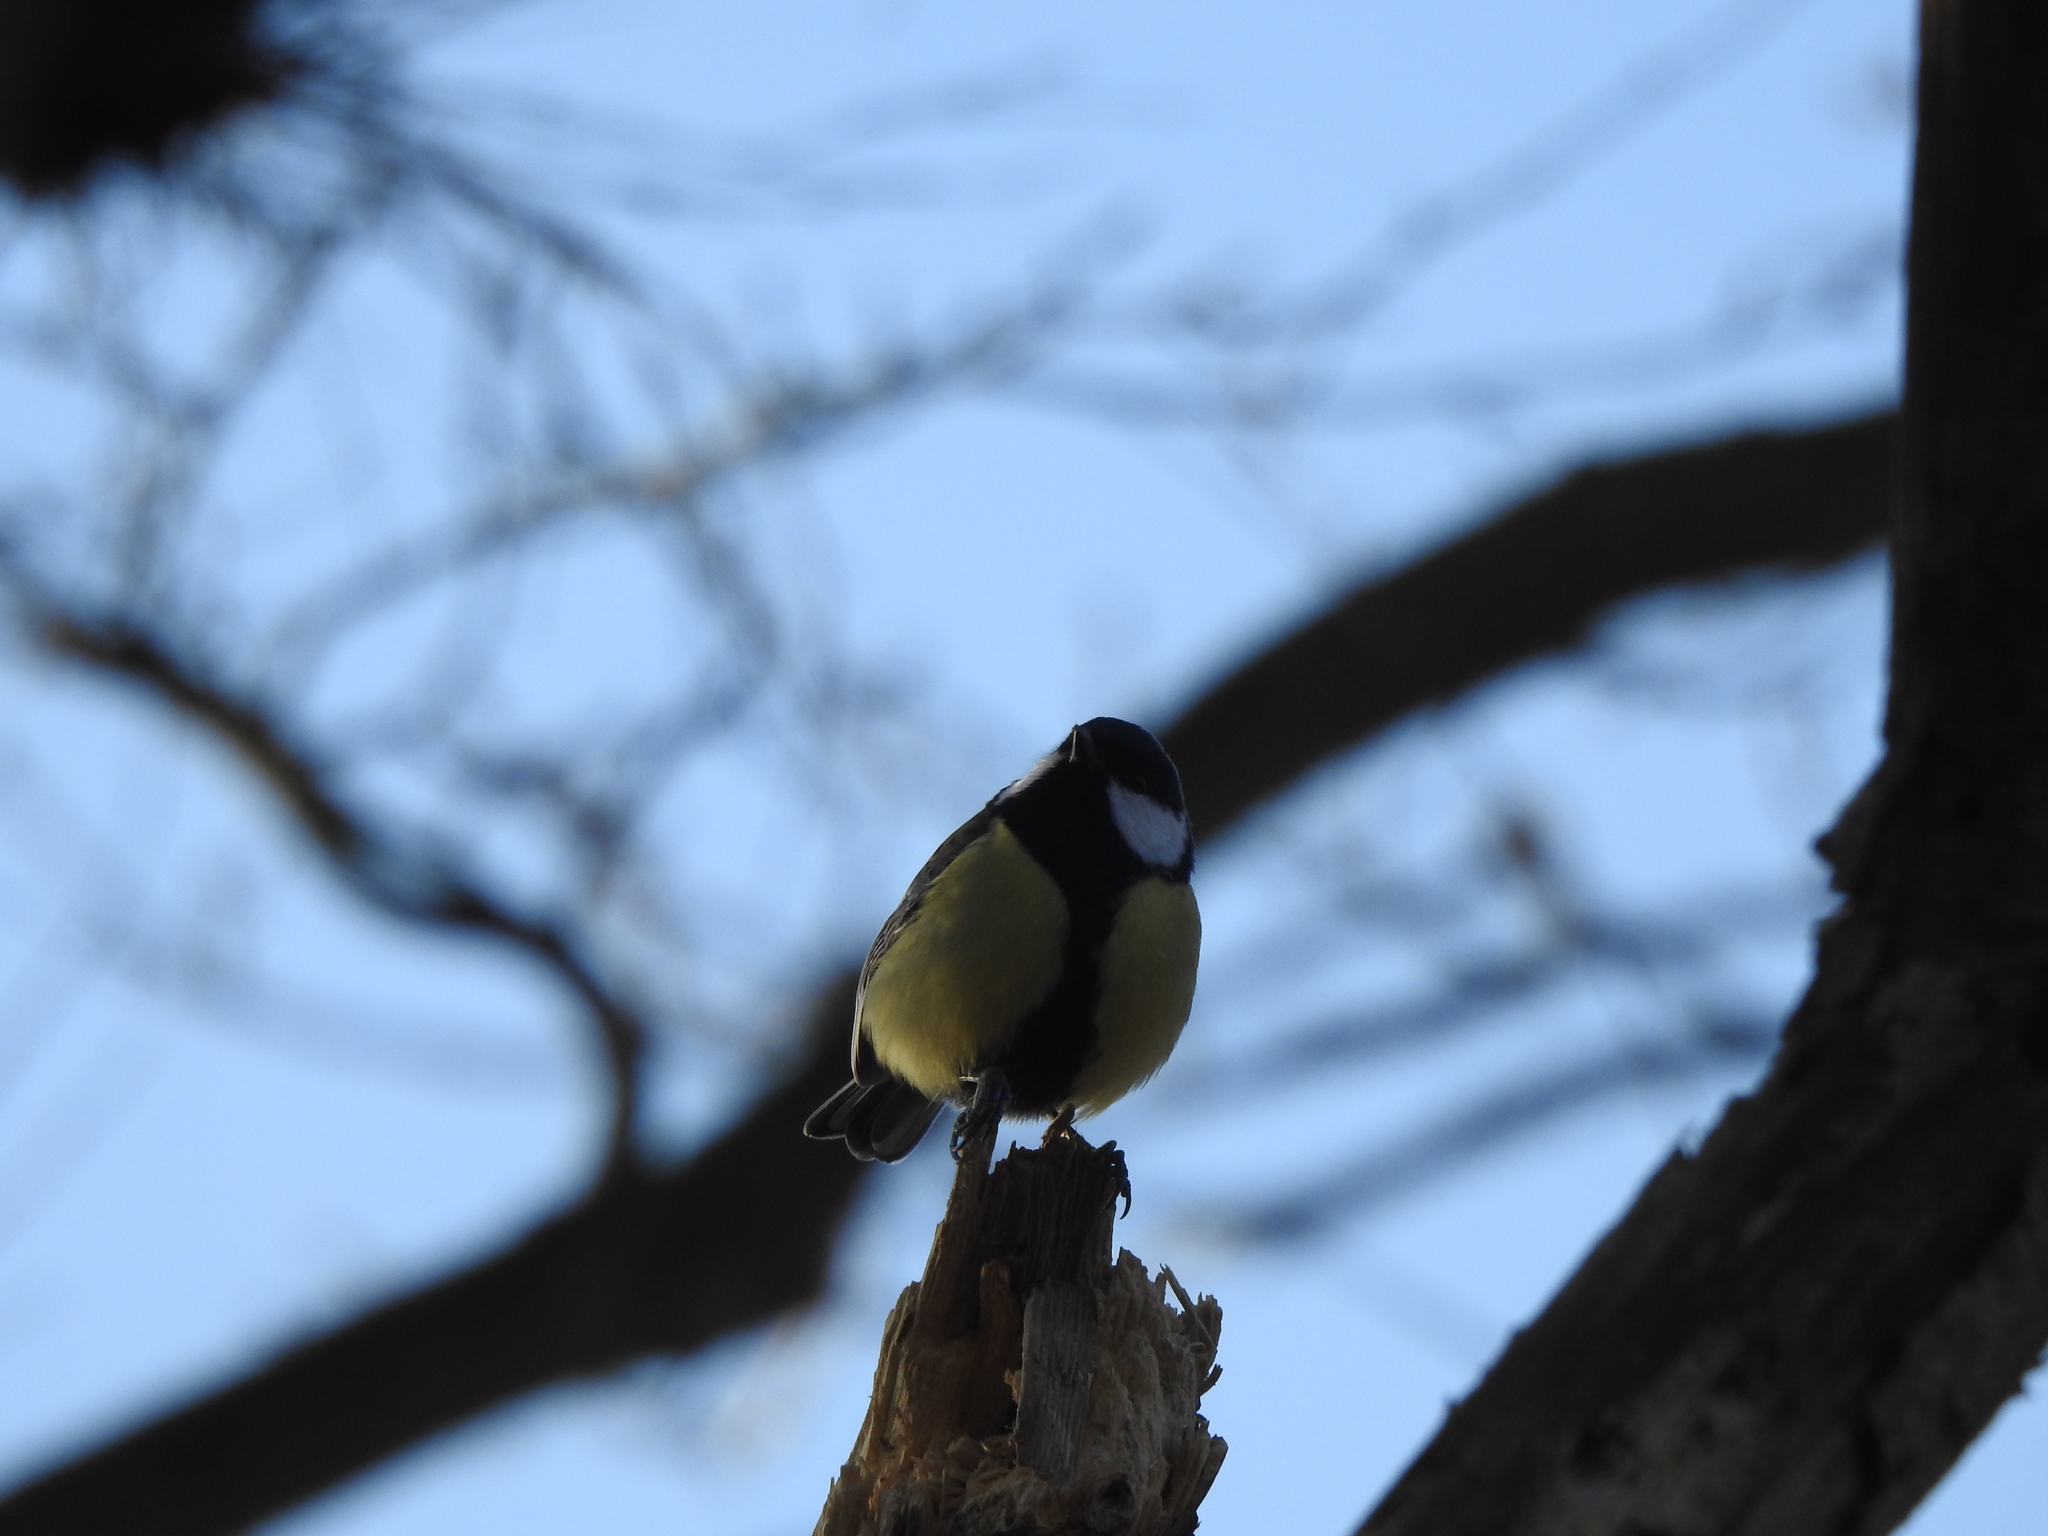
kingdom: Animalia
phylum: Chordata
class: Aves
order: Passeriformes
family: Paridae
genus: Parus
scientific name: Parus major
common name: Great tit
